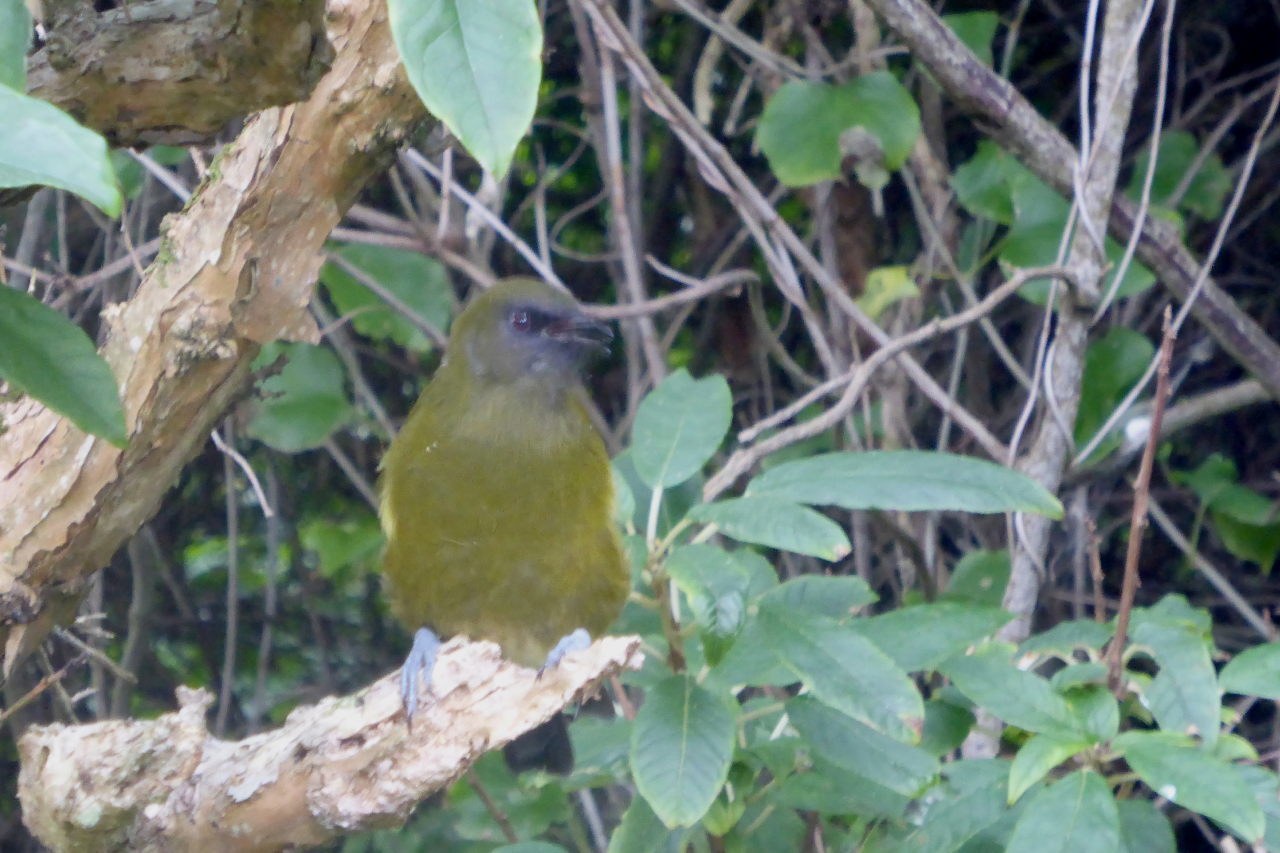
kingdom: Animalia
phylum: Chordata
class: Aves
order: Passeriformes
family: Meliphagidae
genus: Anthornis
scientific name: Anthornis melanura
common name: New zealand bellbird
